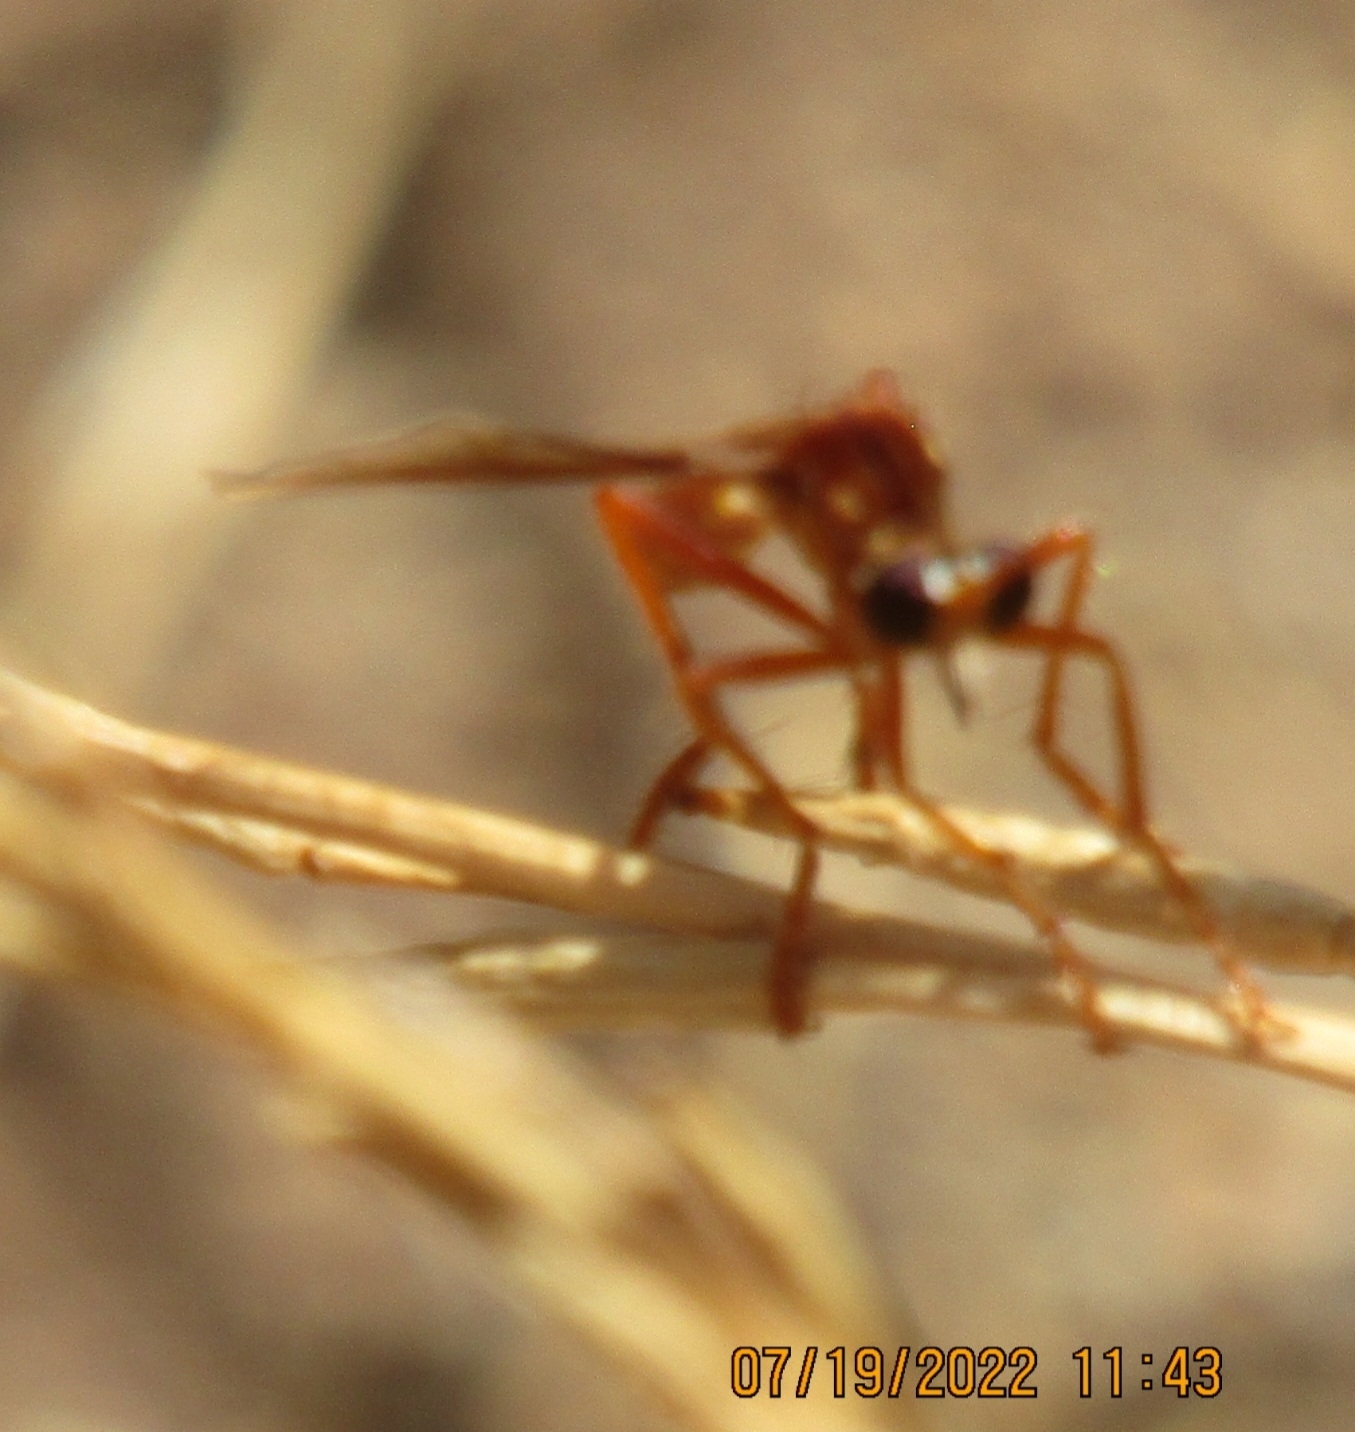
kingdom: Animalia
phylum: Arthropoda
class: Insecta
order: Diptera
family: Asilidae
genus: Saropogon
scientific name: Saropogon luteus
